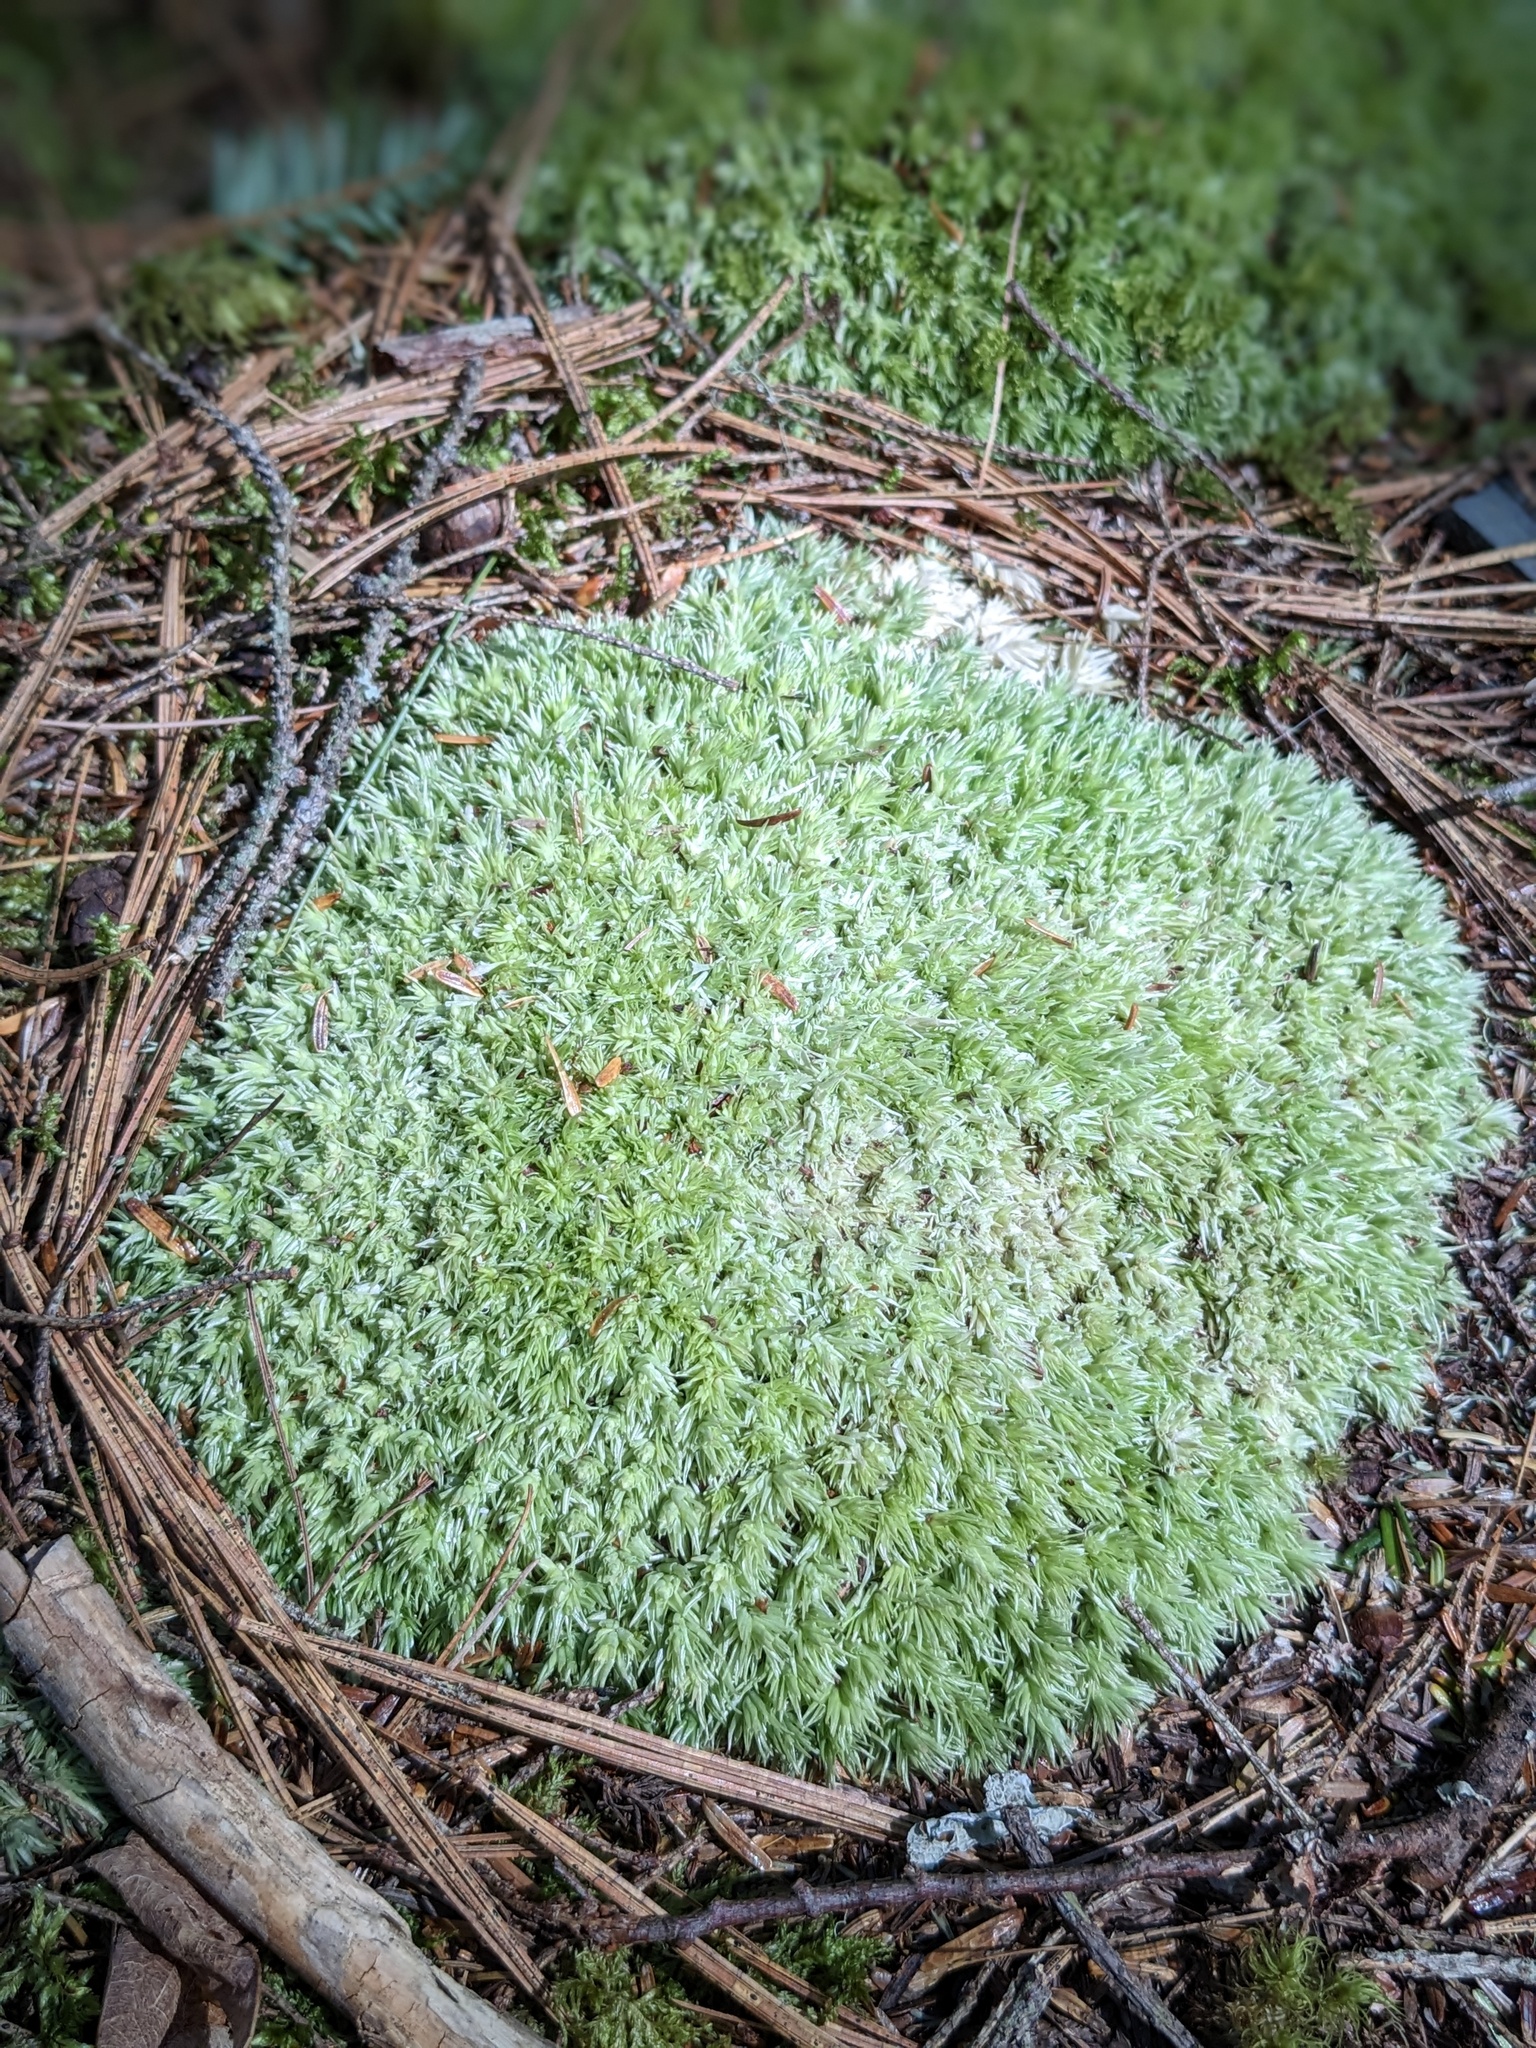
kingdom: Plantae
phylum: Bryophyta
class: Bryopsida
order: Dicranales
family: Leucobryaceae
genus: Leucobryum
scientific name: Leucobryum glaucum
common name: Large white-moss
